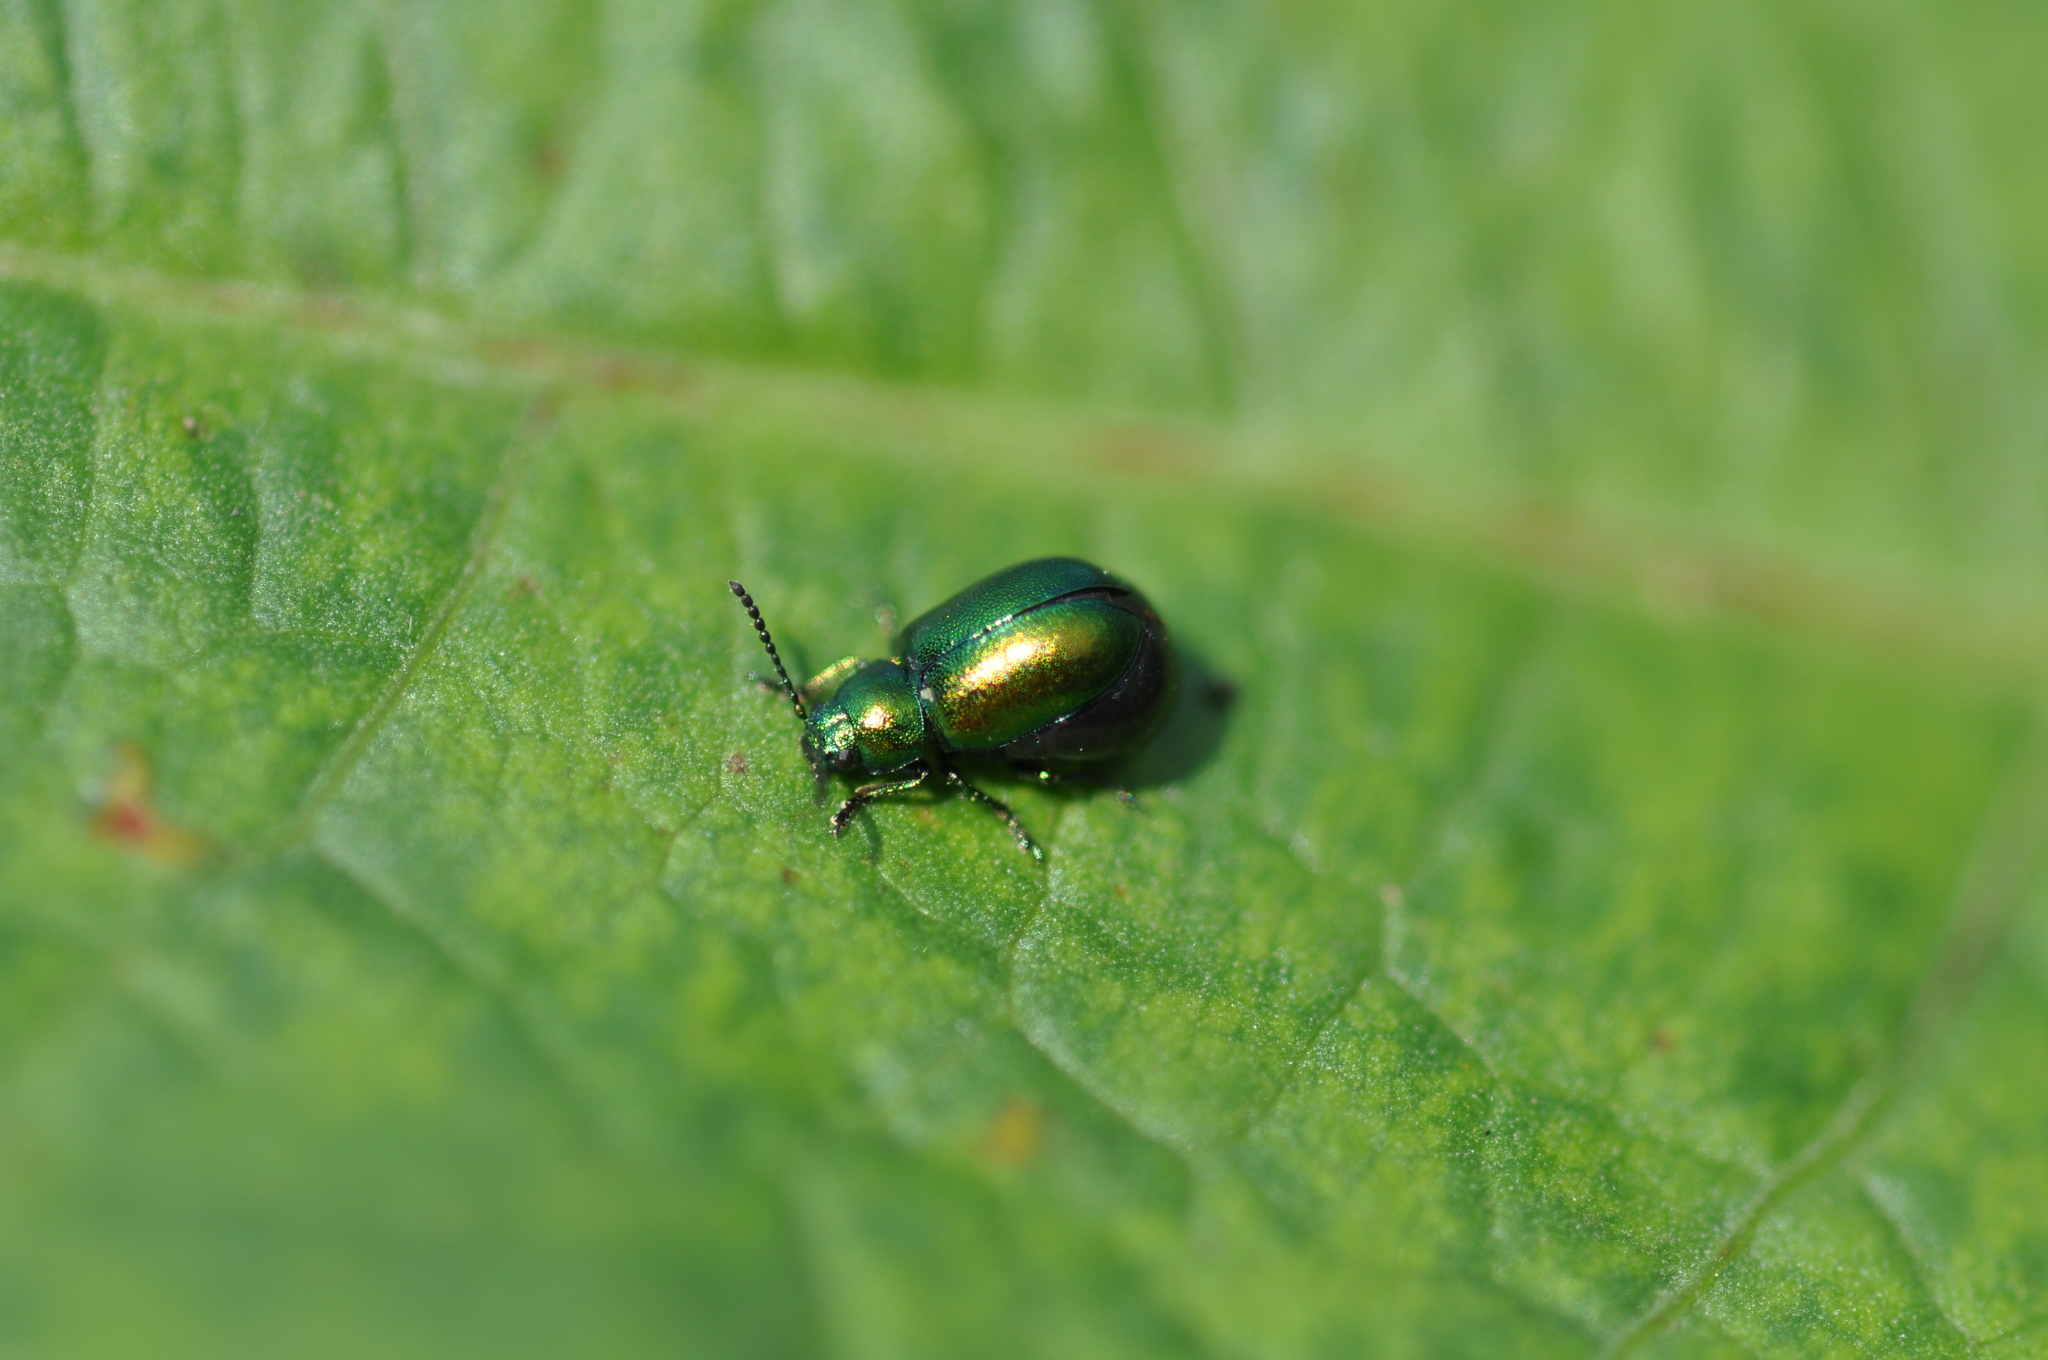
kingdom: Animalia
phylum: Arthropoda
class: Insecta
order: Coleoptera
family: Chrysomelidae
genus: Gastrophysa
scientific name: Gastrophysa viridula
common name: Green dock beetle
